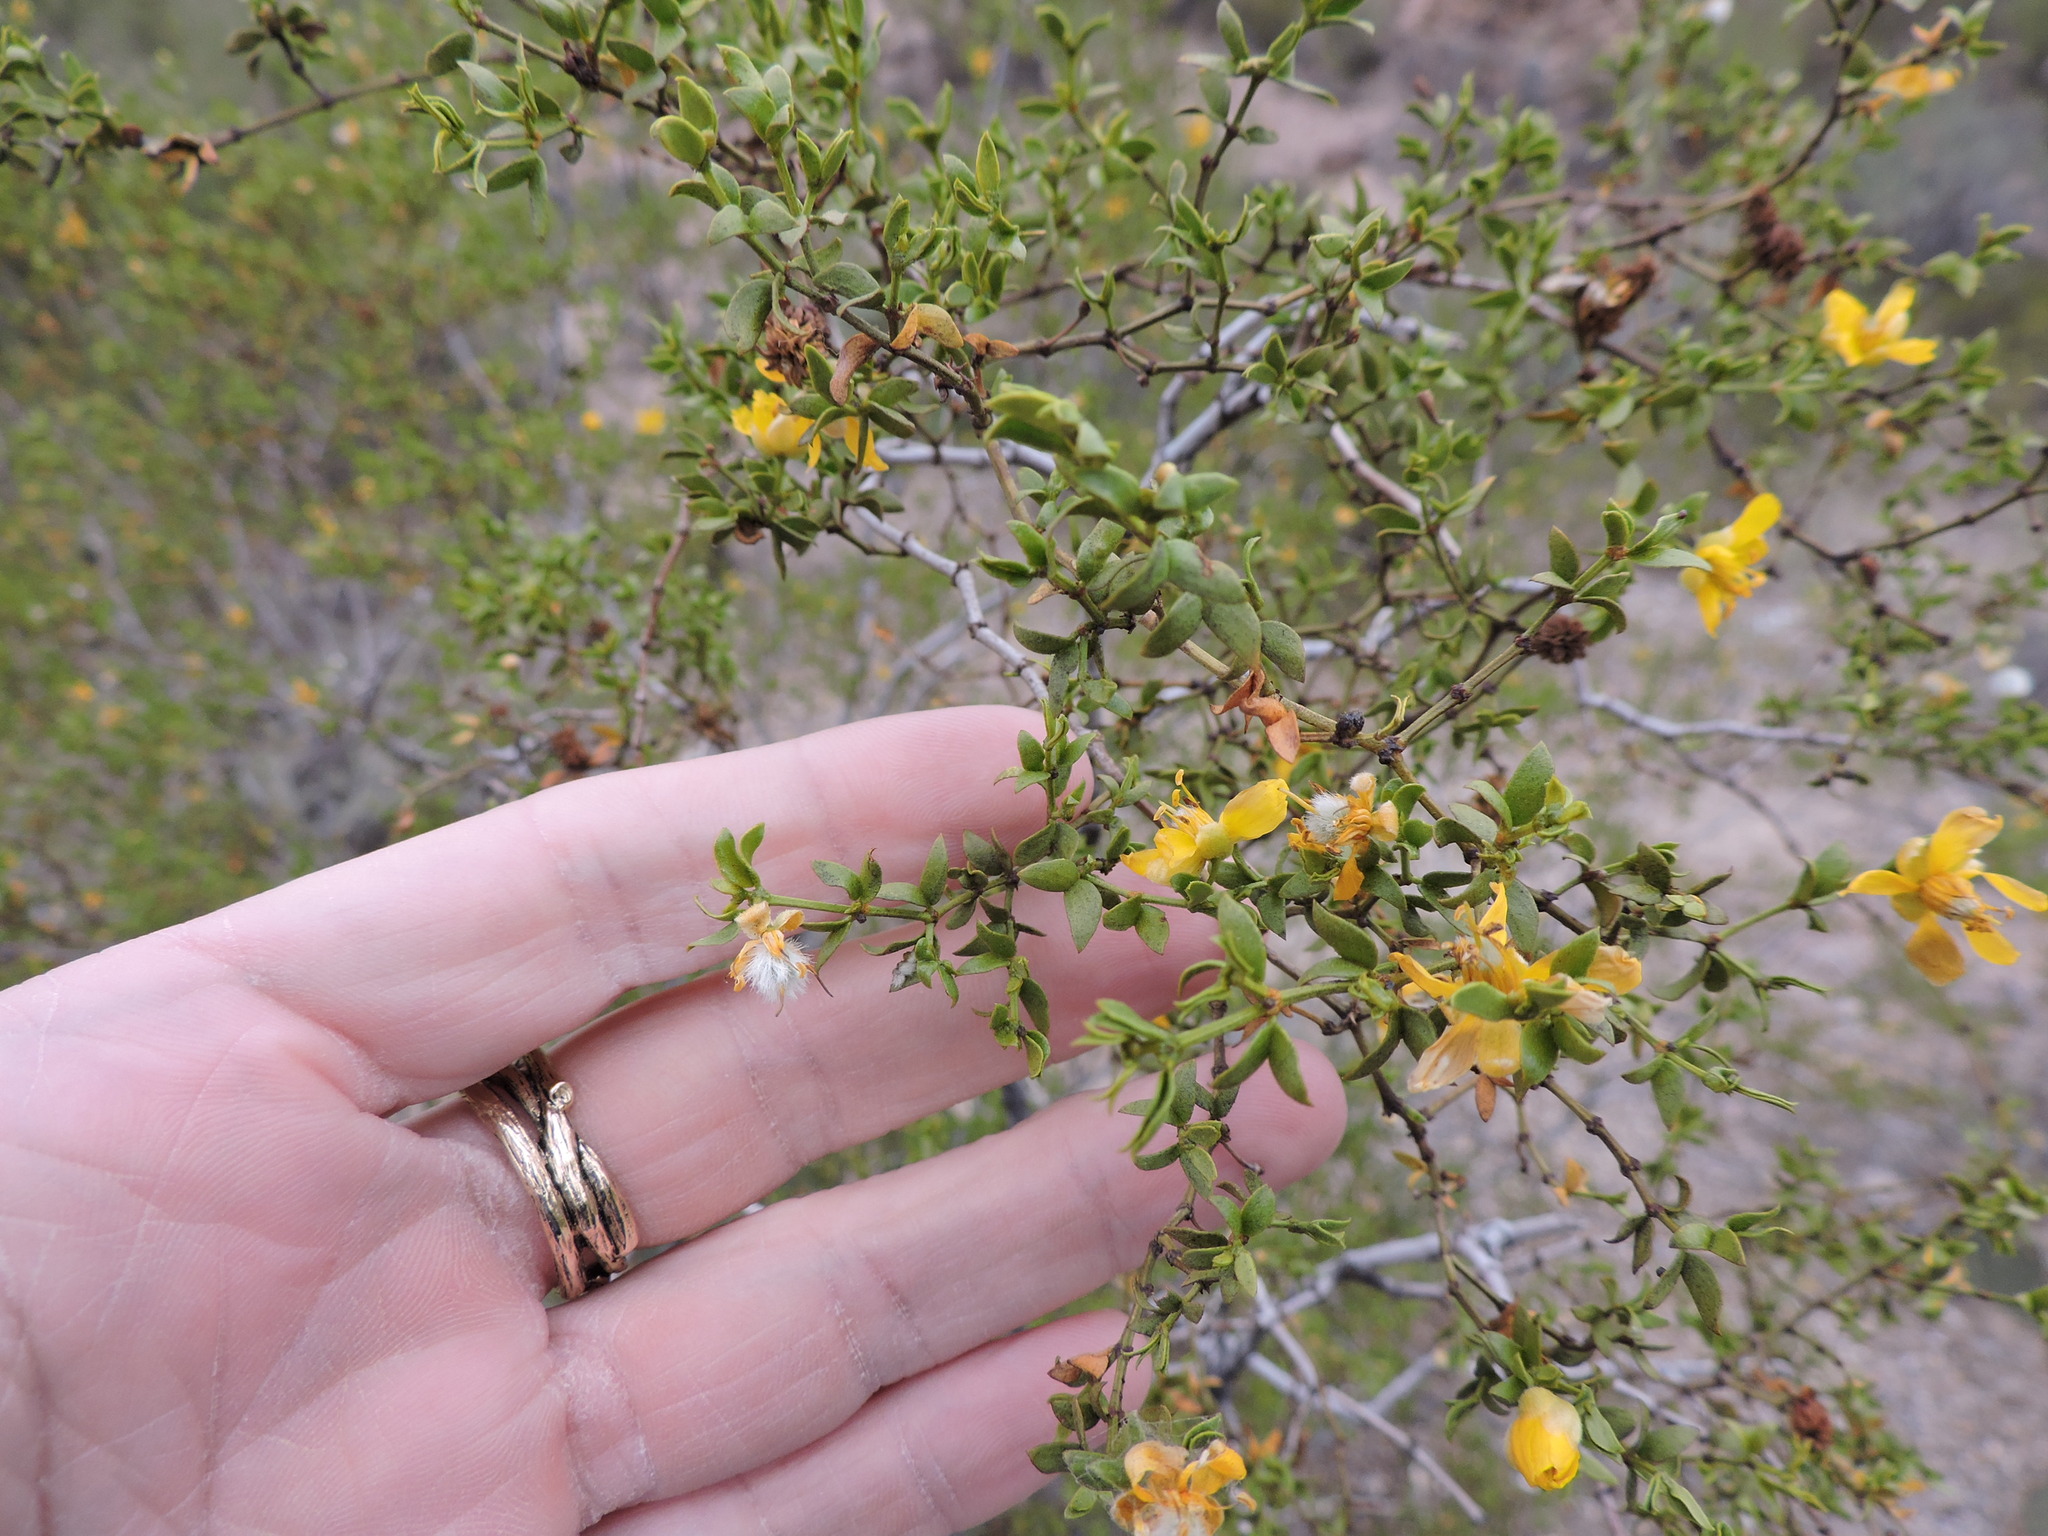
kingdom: Plantae
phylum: Tracheophyta
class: Magnoliopsida
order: Zygophyllales
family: Zygophyllaceae
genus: Larrea
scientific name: Larrea tridentata
